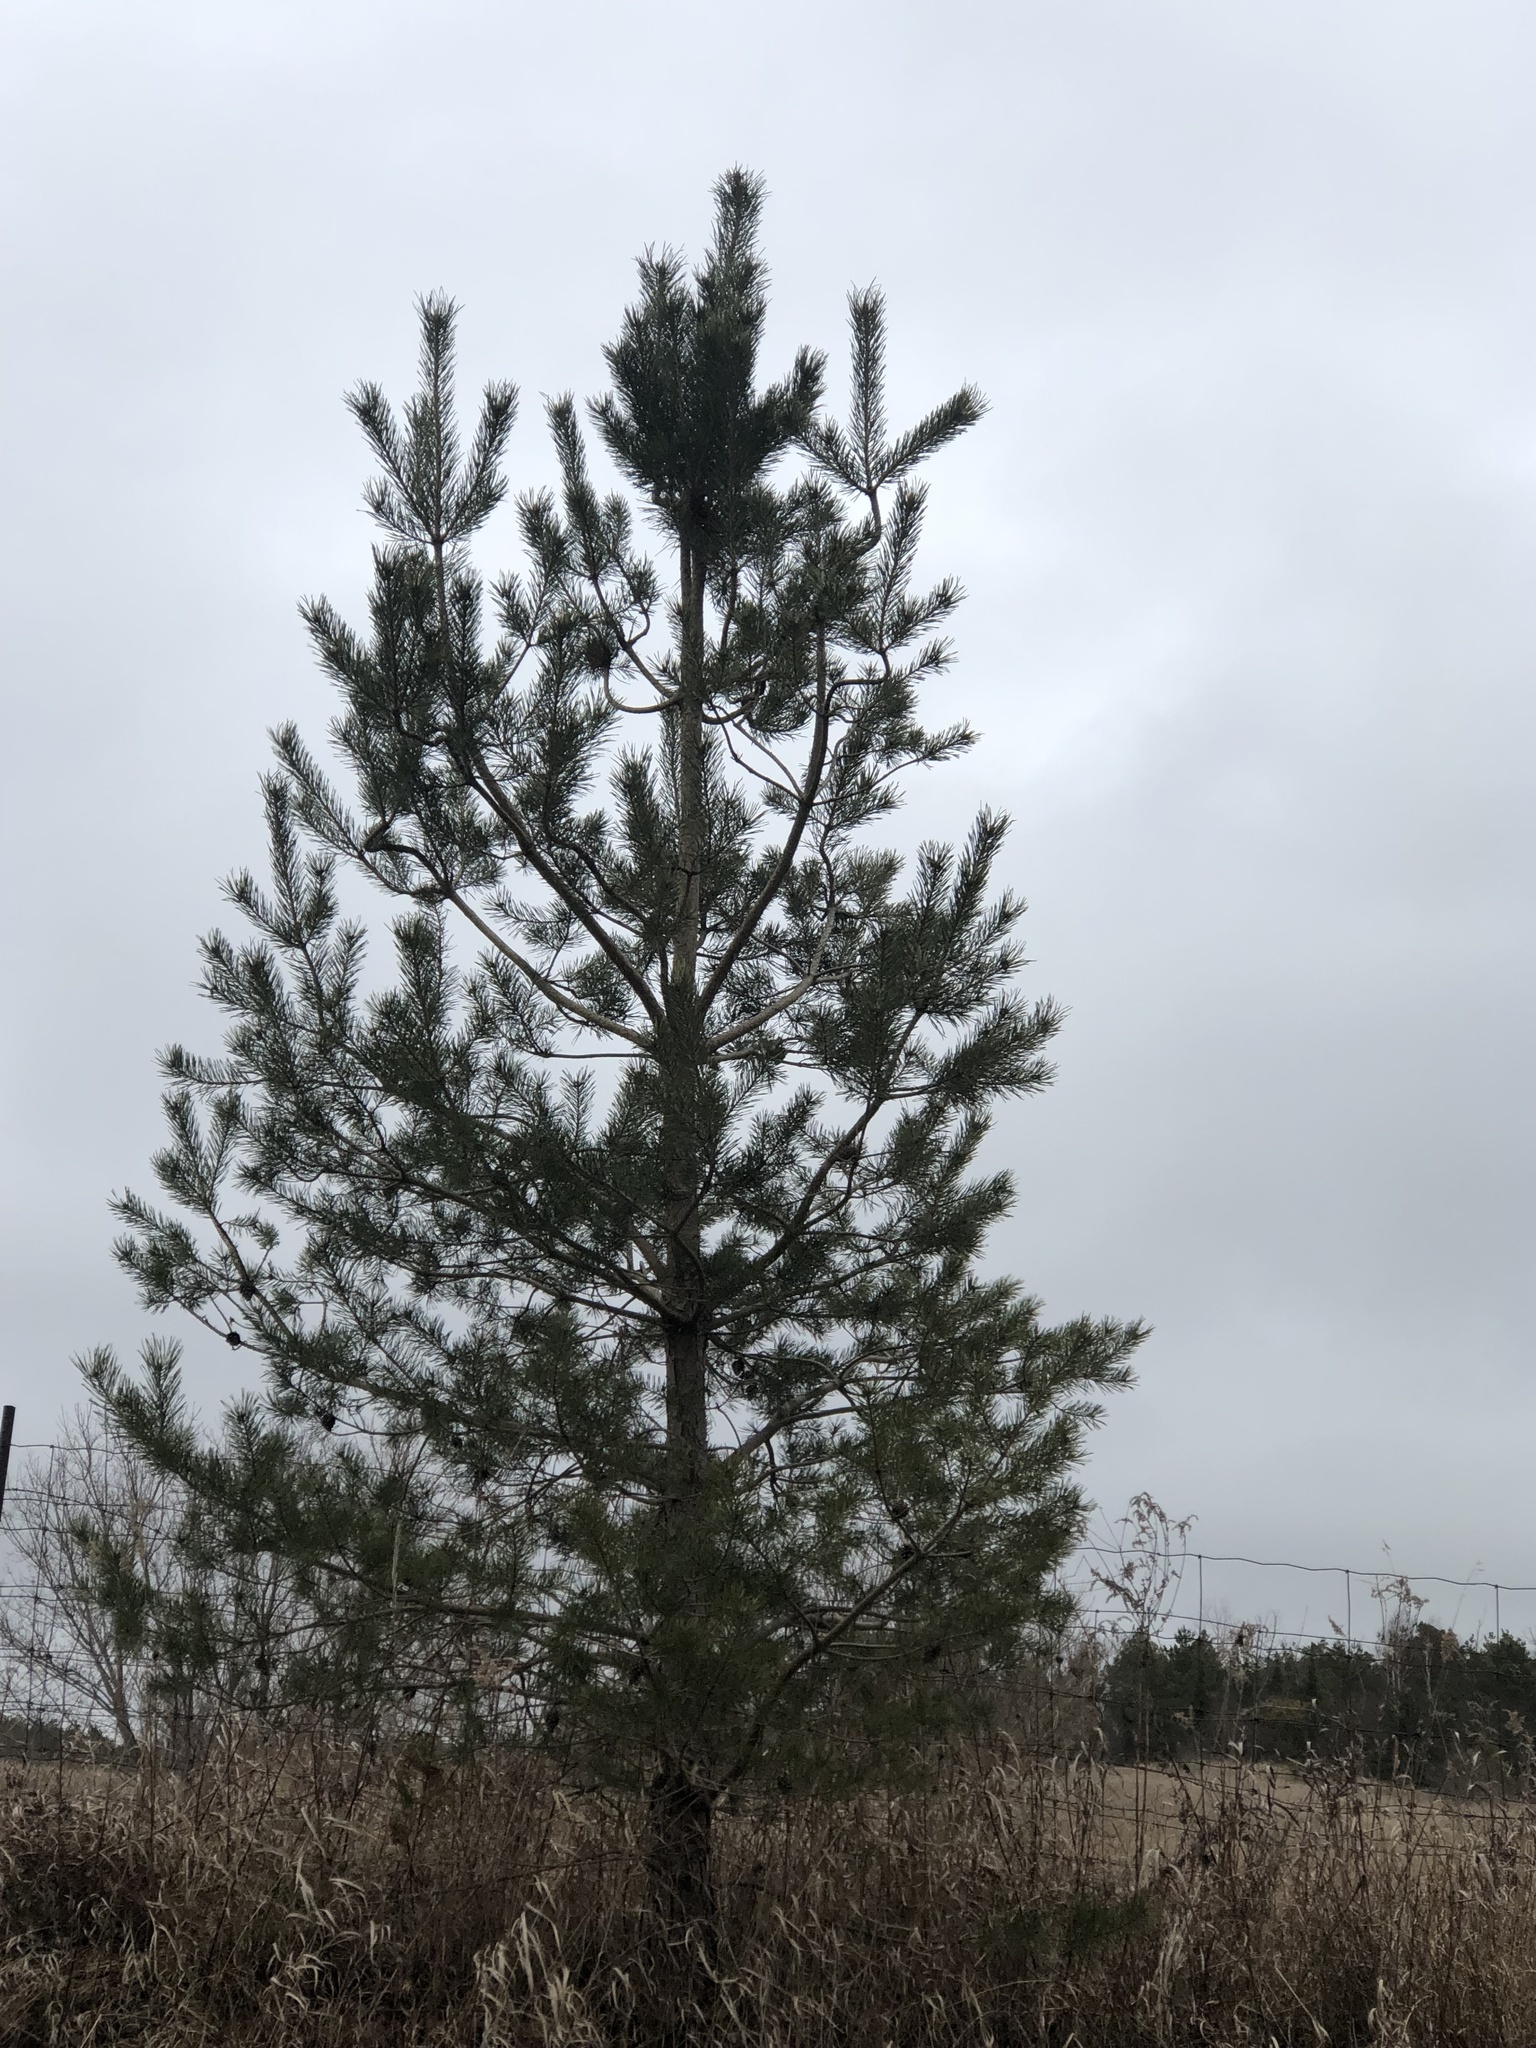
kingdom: Plantae
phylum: Tracheophyta
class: Pinopsida
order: Pinales
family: Pinaceae
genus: Pinus
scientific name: Pinus sylvestris
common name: Scots pine
